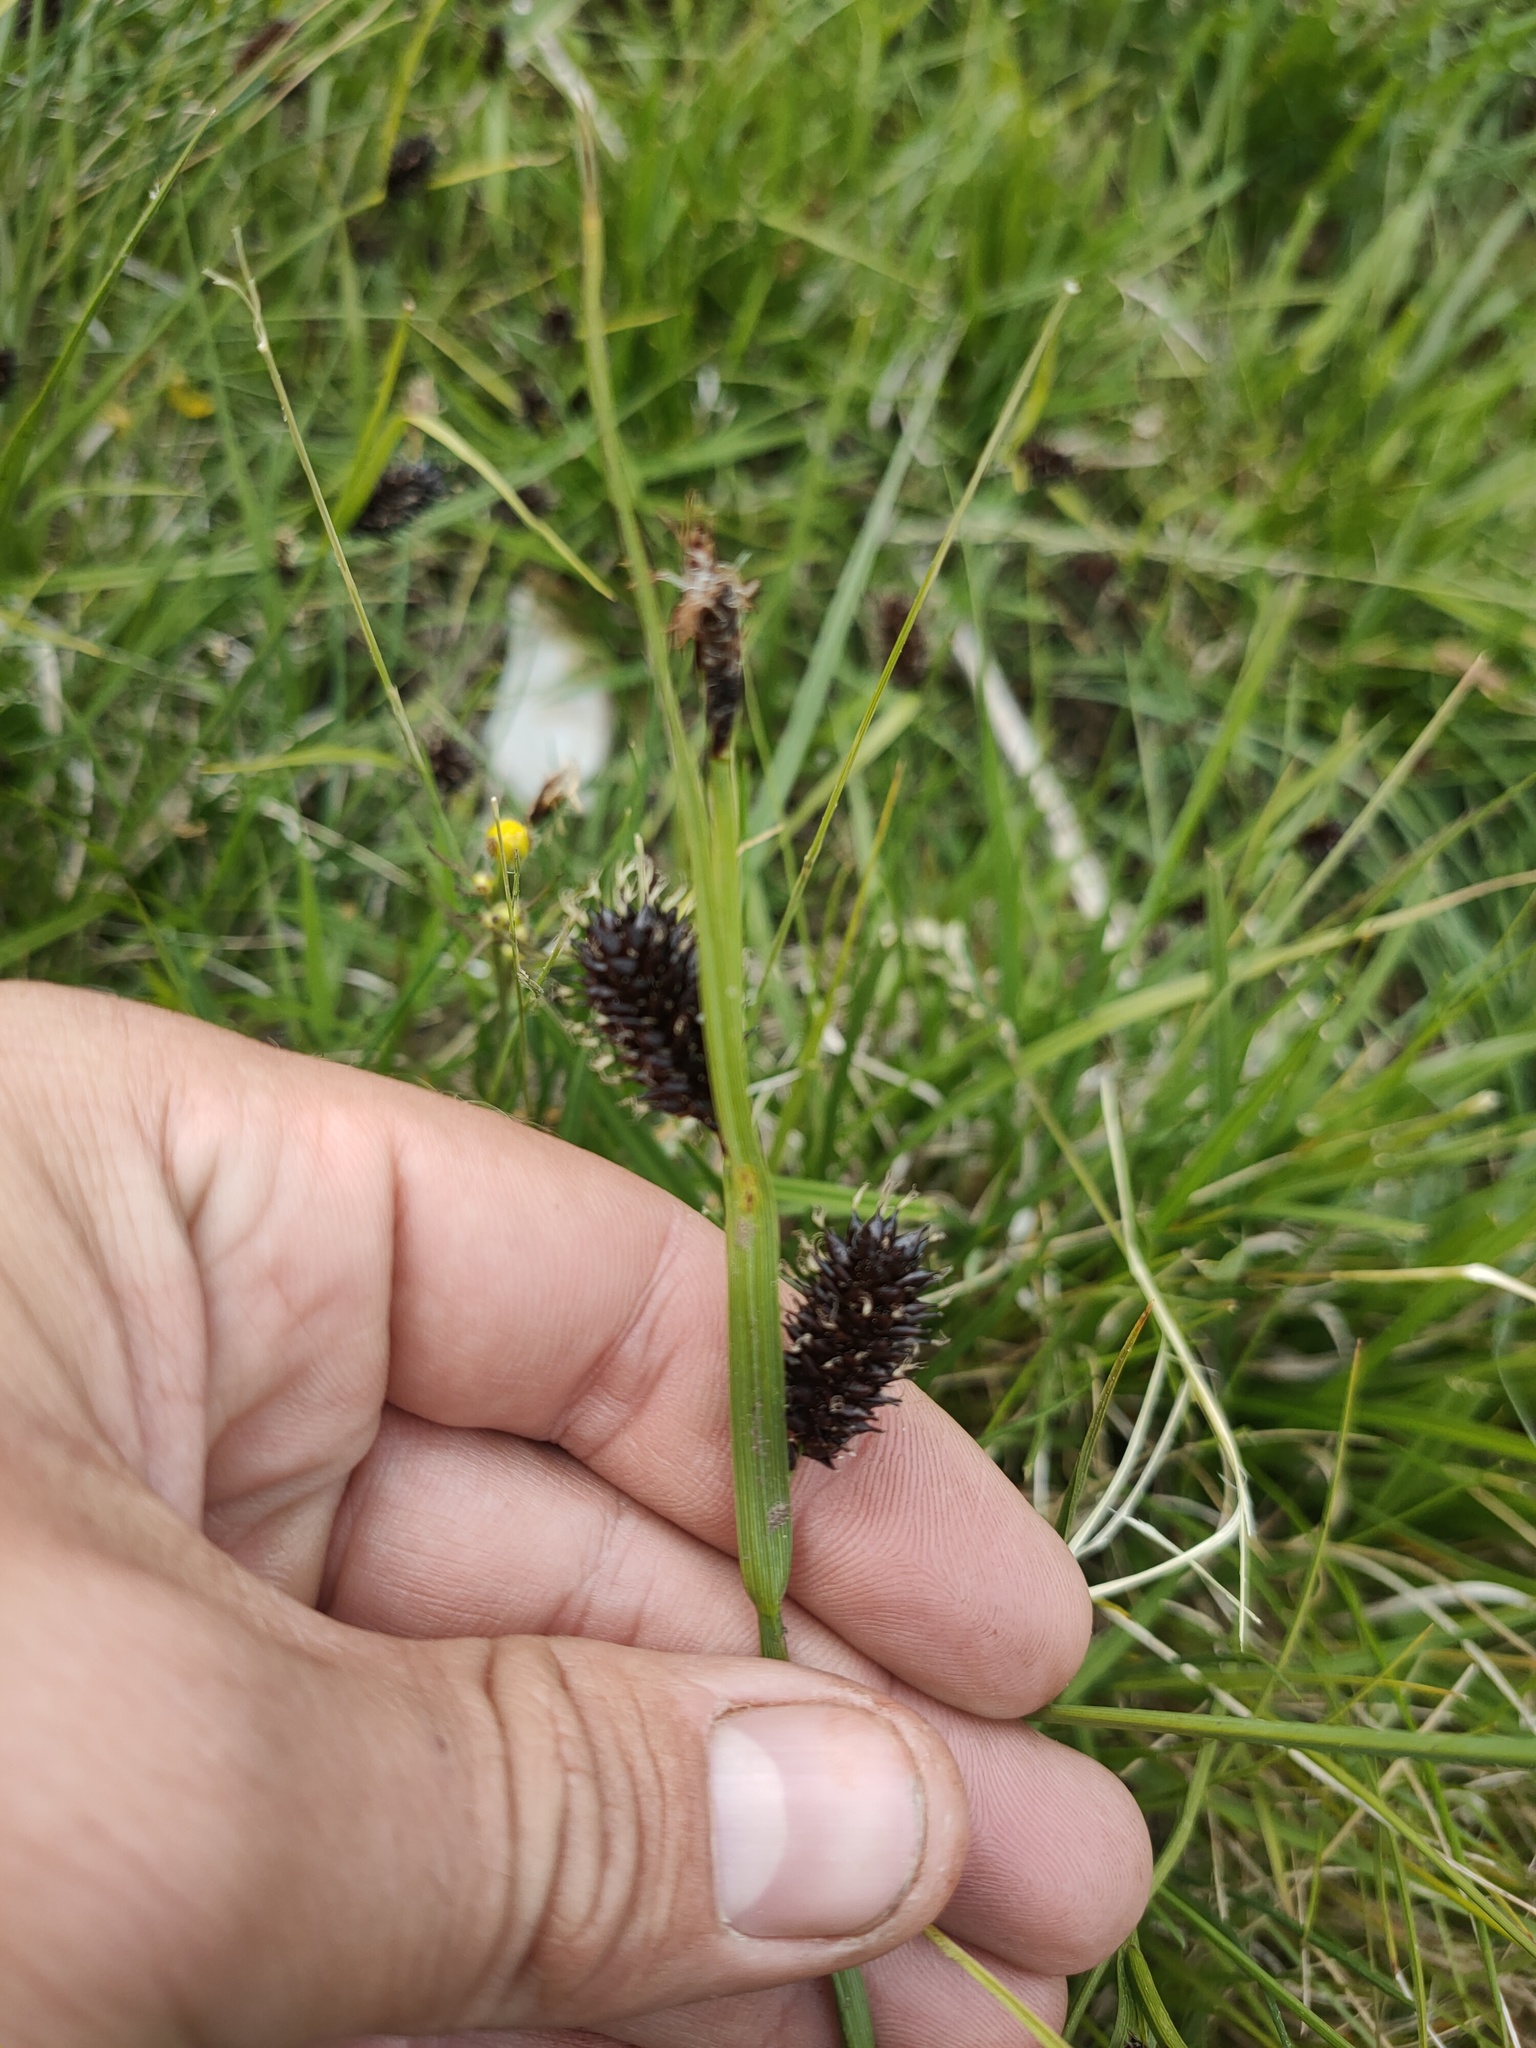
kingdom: Plantae
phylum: Tracheophyta
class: Liliopsida
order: Poales
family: Cyperaceae
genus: Carex
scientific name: Carex pamirensis
